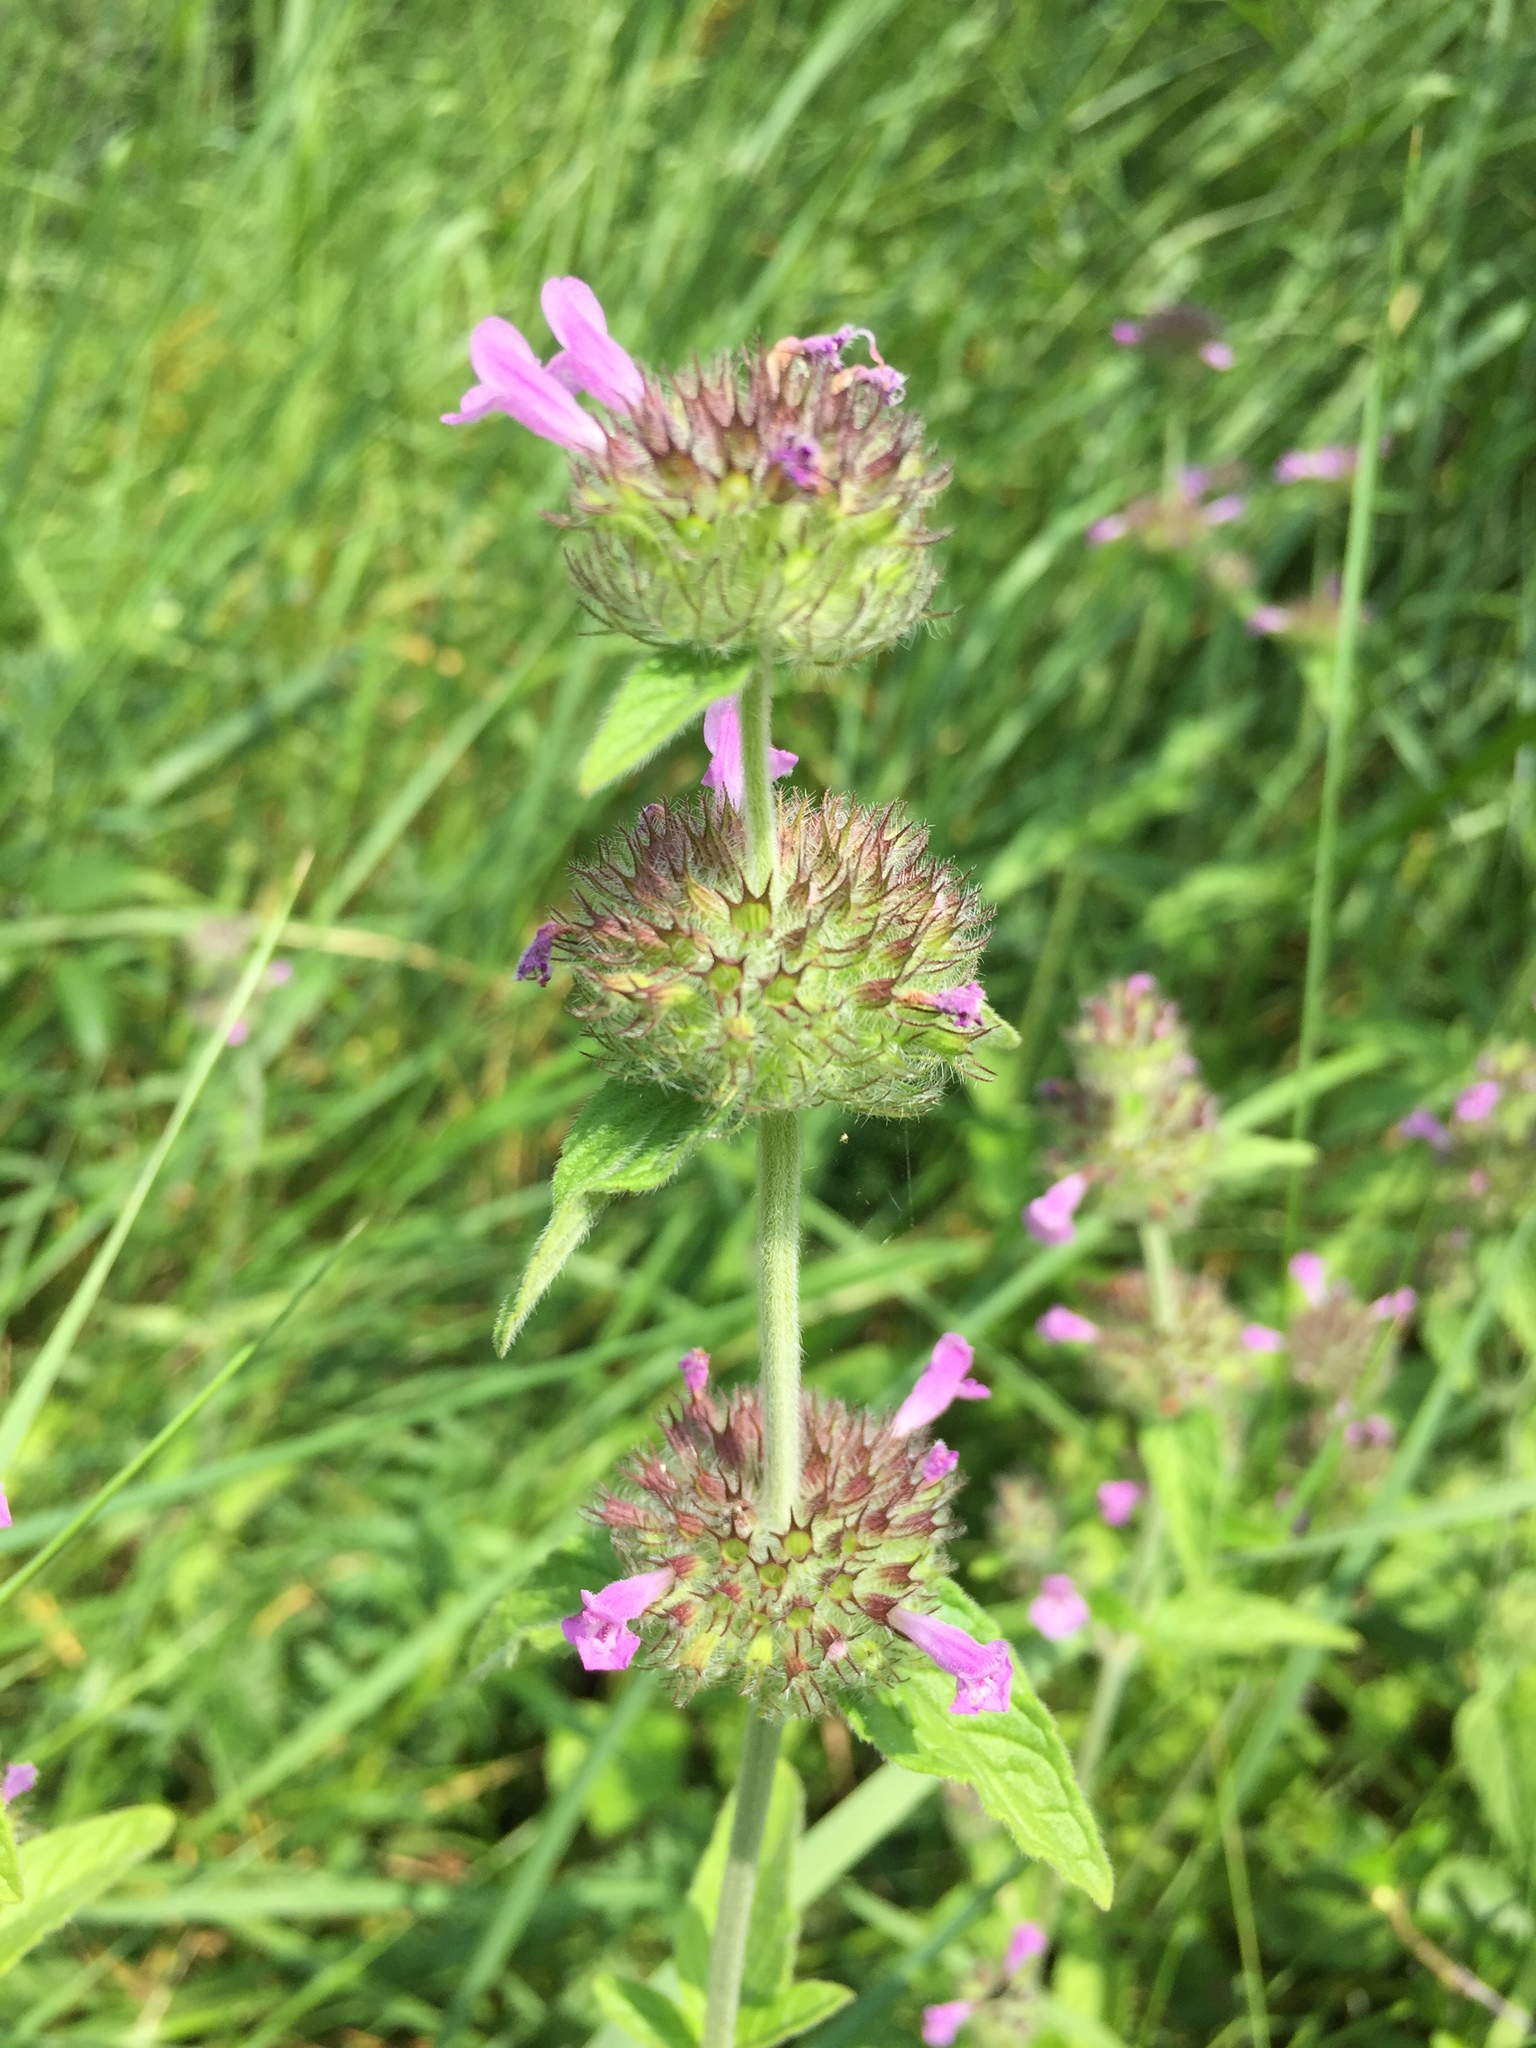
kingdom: Plantae
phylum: Tracheophyta
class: Magnoliopsida
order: Lamiales
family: Lamiaceae
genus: Clinopodium
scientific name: Clinopodium vulgare
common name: Wild basil
